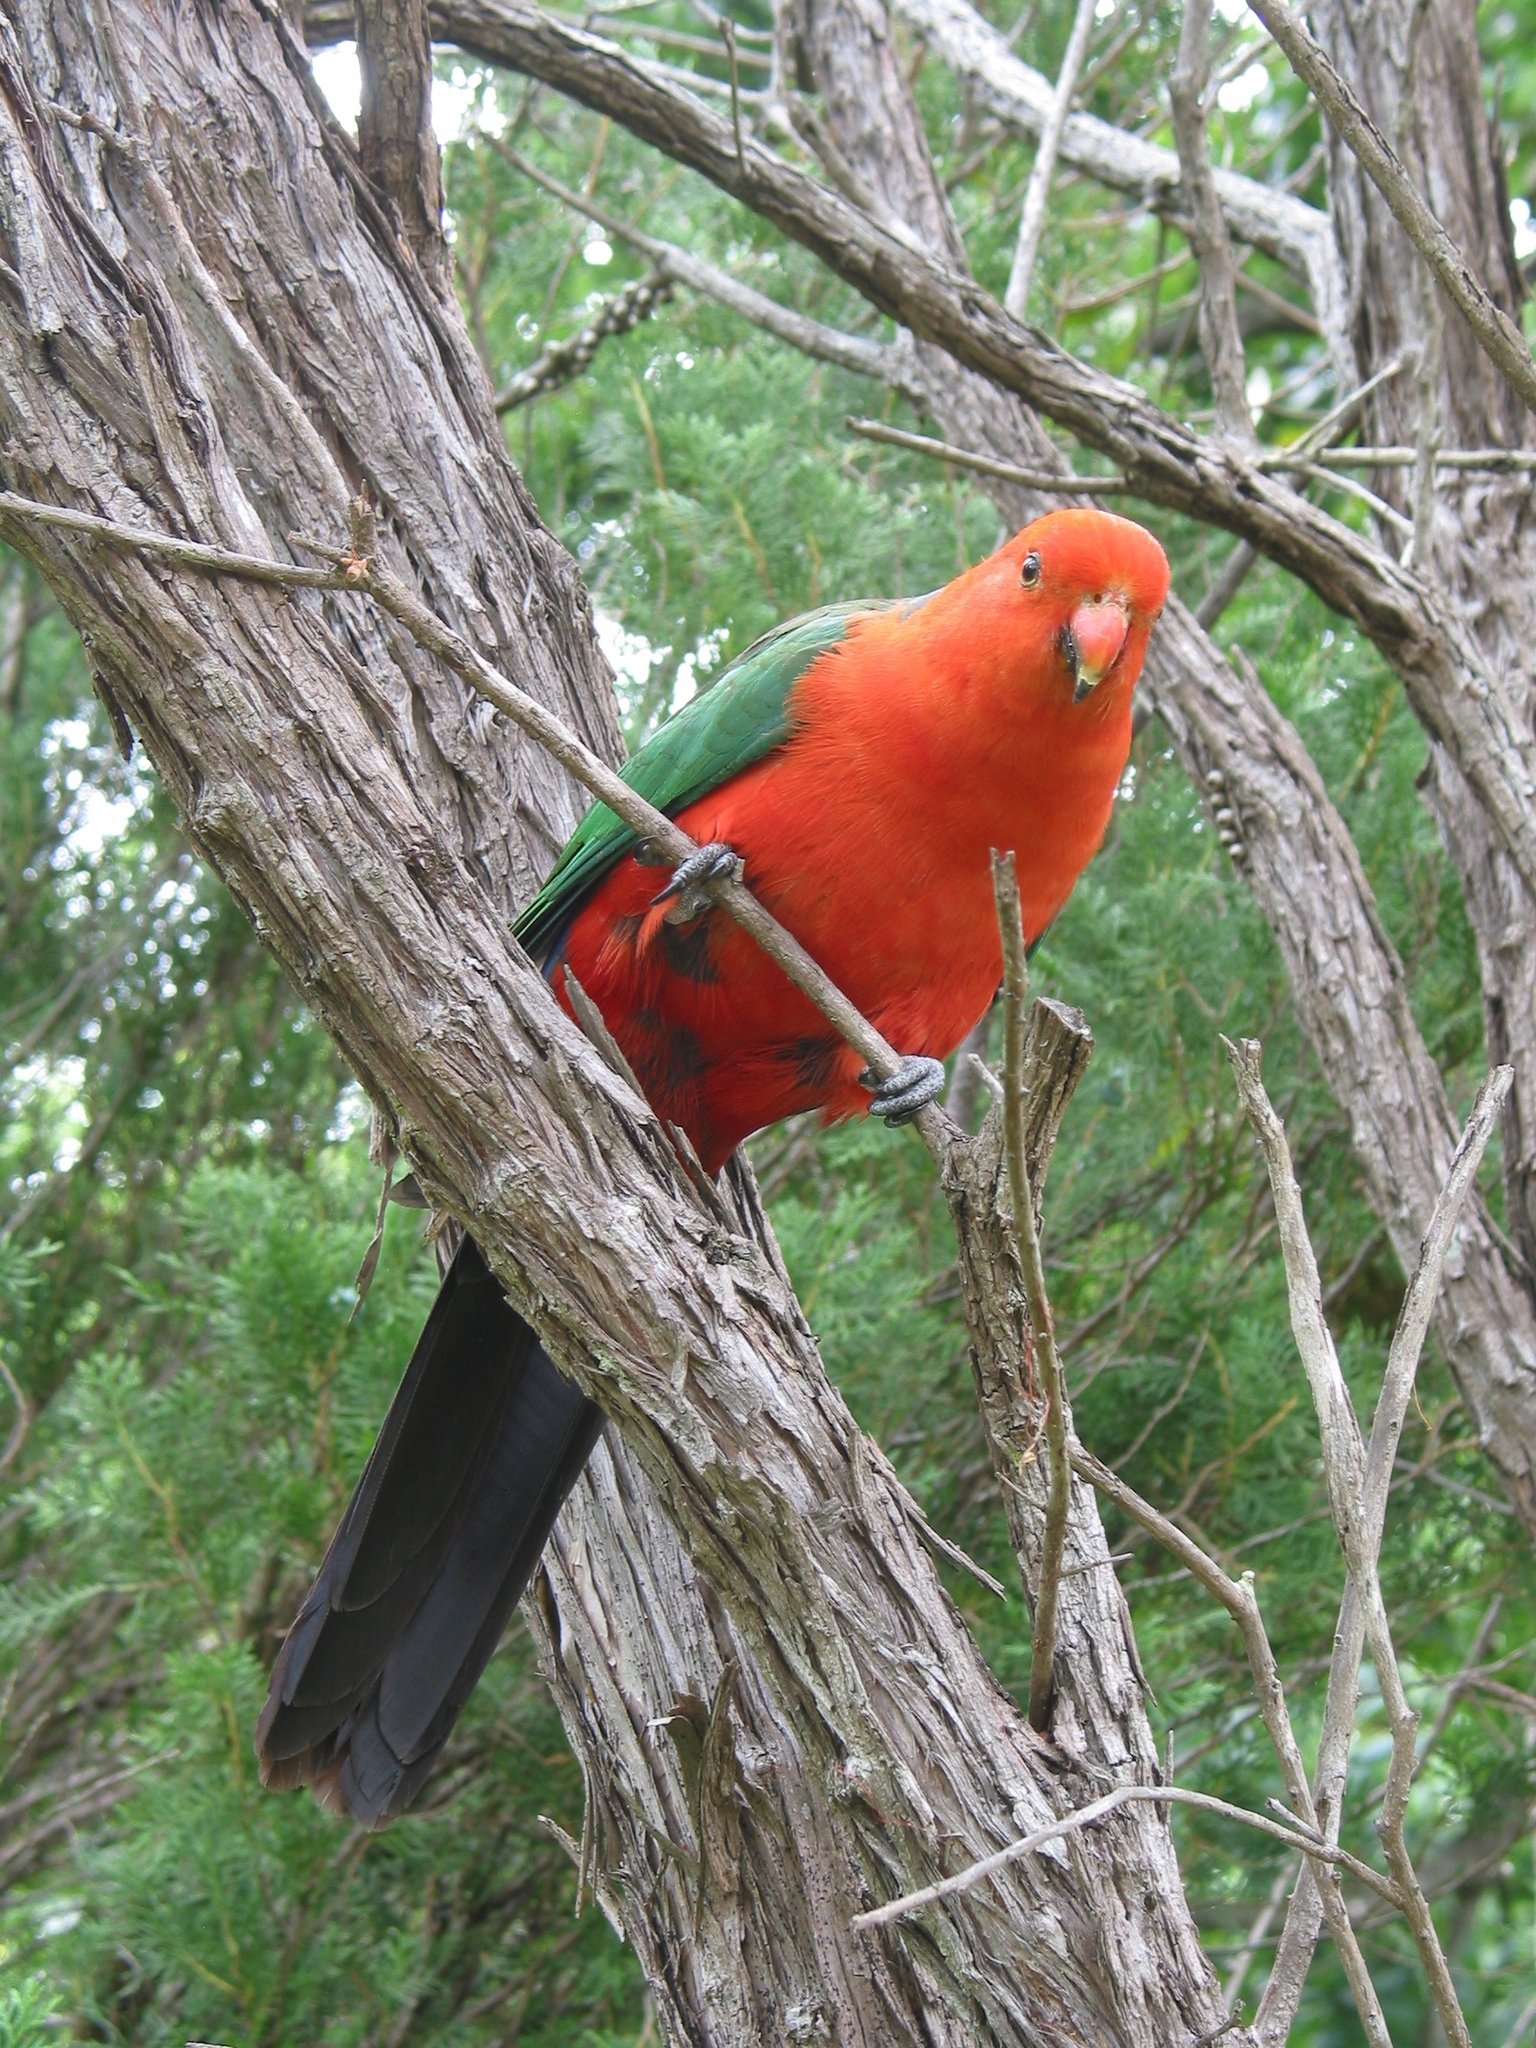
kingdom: Animalia
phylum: Chordata
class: Aves
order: Psittaciformes
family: Psittacidae
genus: Alisterus
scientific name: Alisterus scapularis
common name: Australian king parrot
